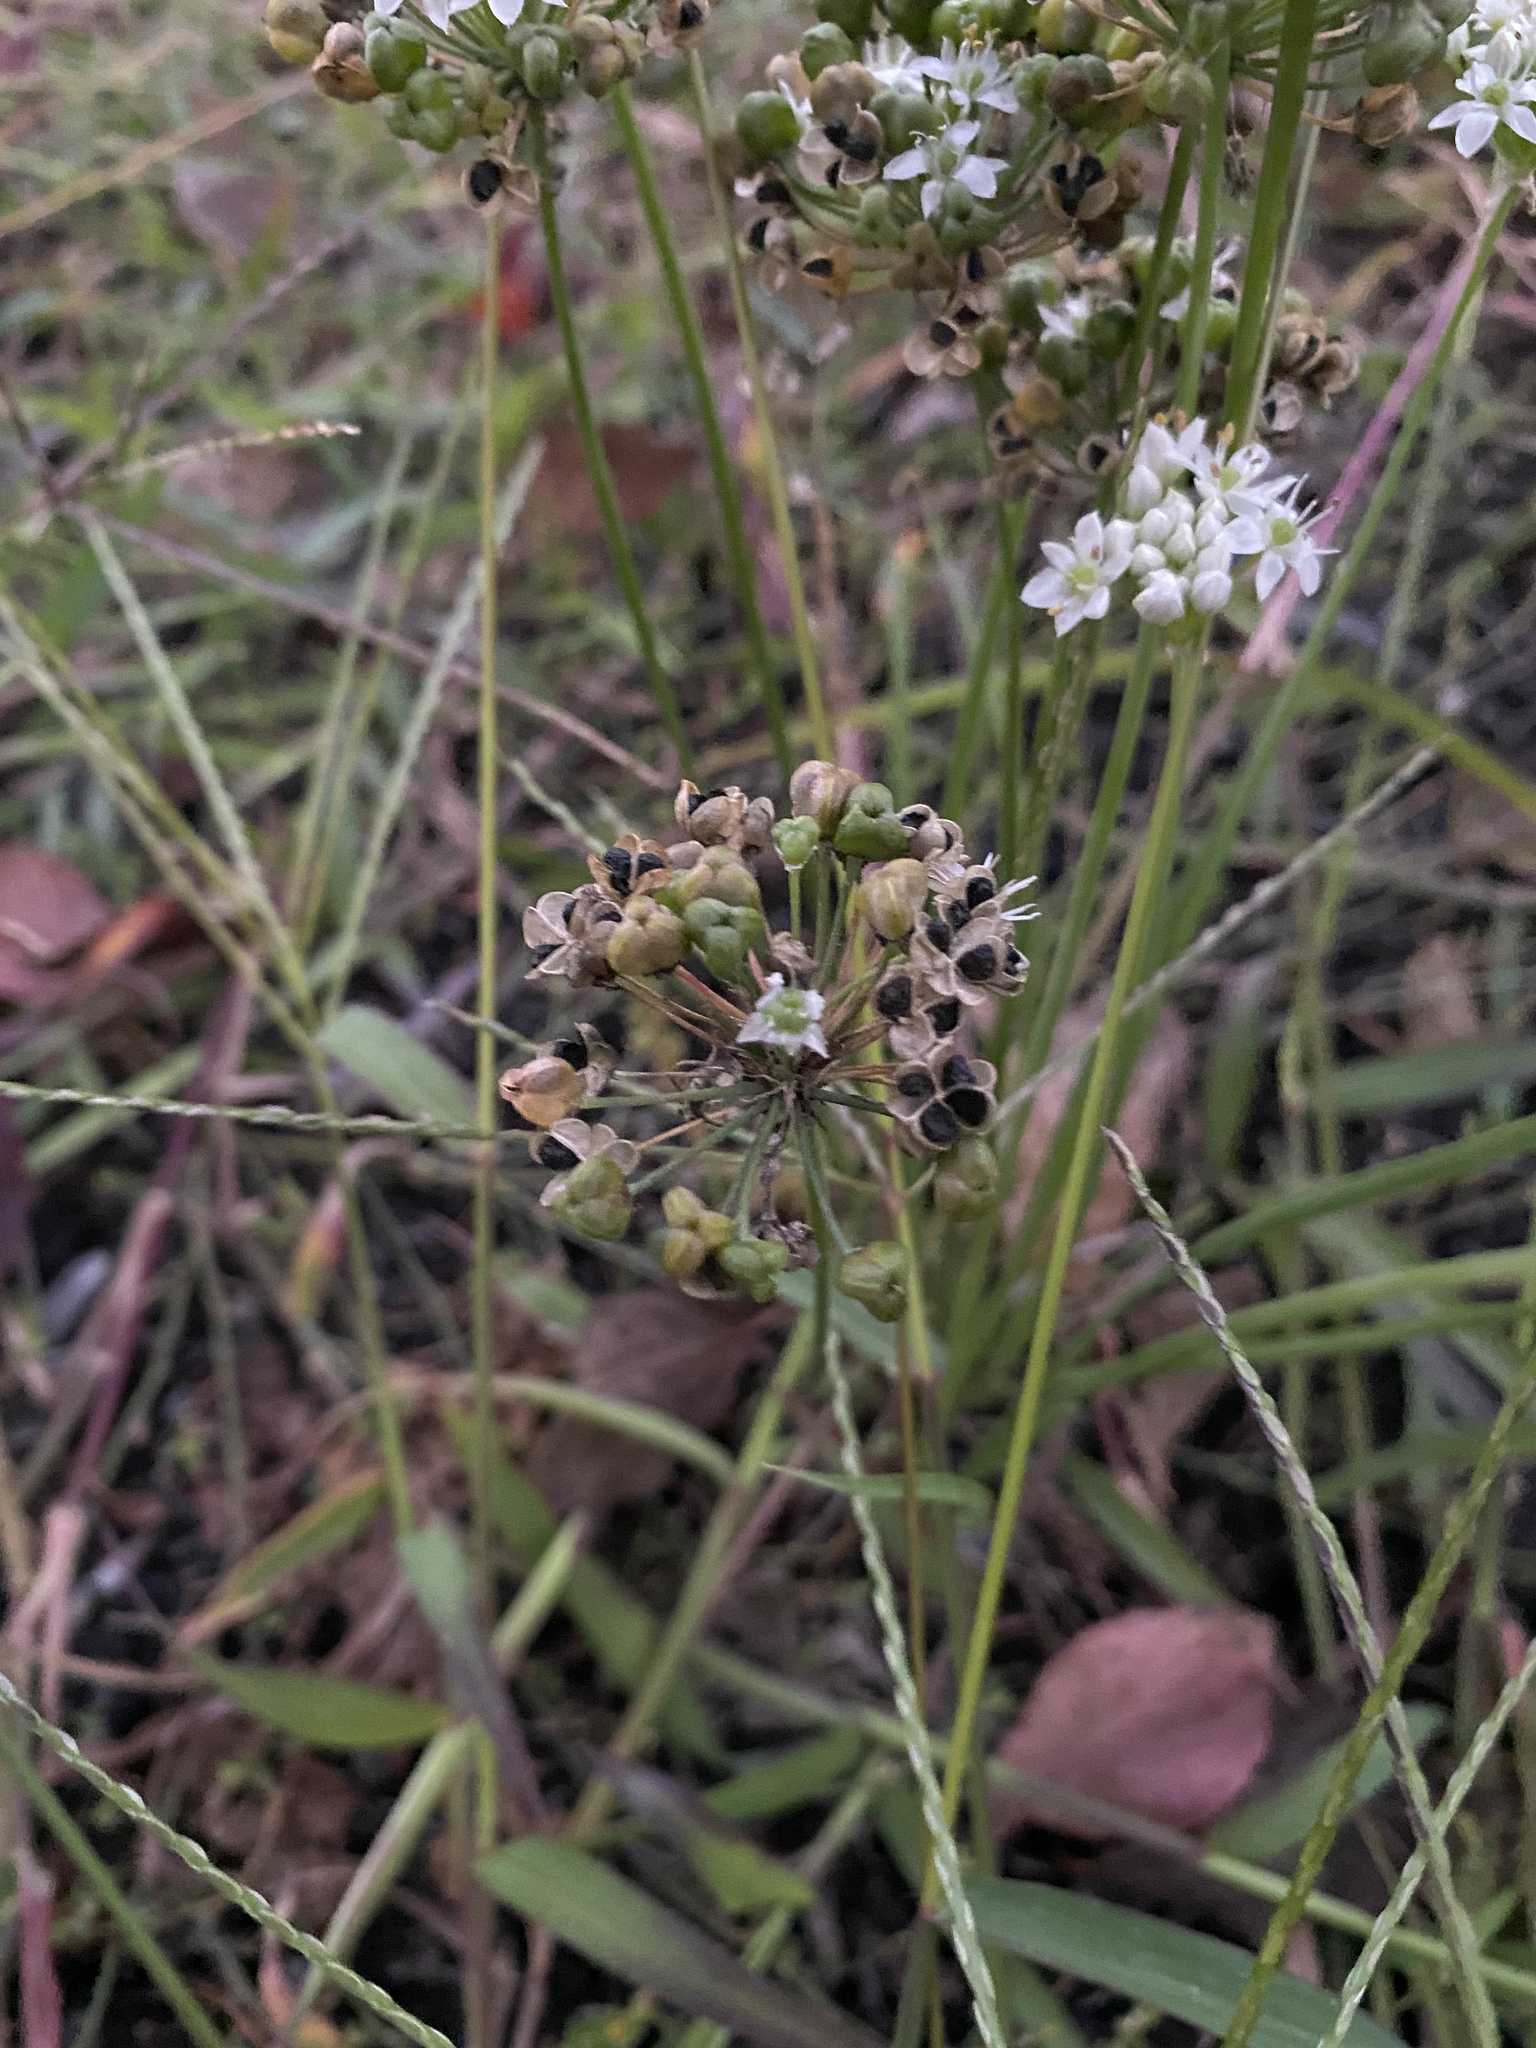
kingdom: Plantae
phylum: Tracheophyta
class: Liliopsida
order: Asparagales
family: Amaryllidaceae
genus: Allium
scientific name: Allium tuberosum
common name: Chinese chives
